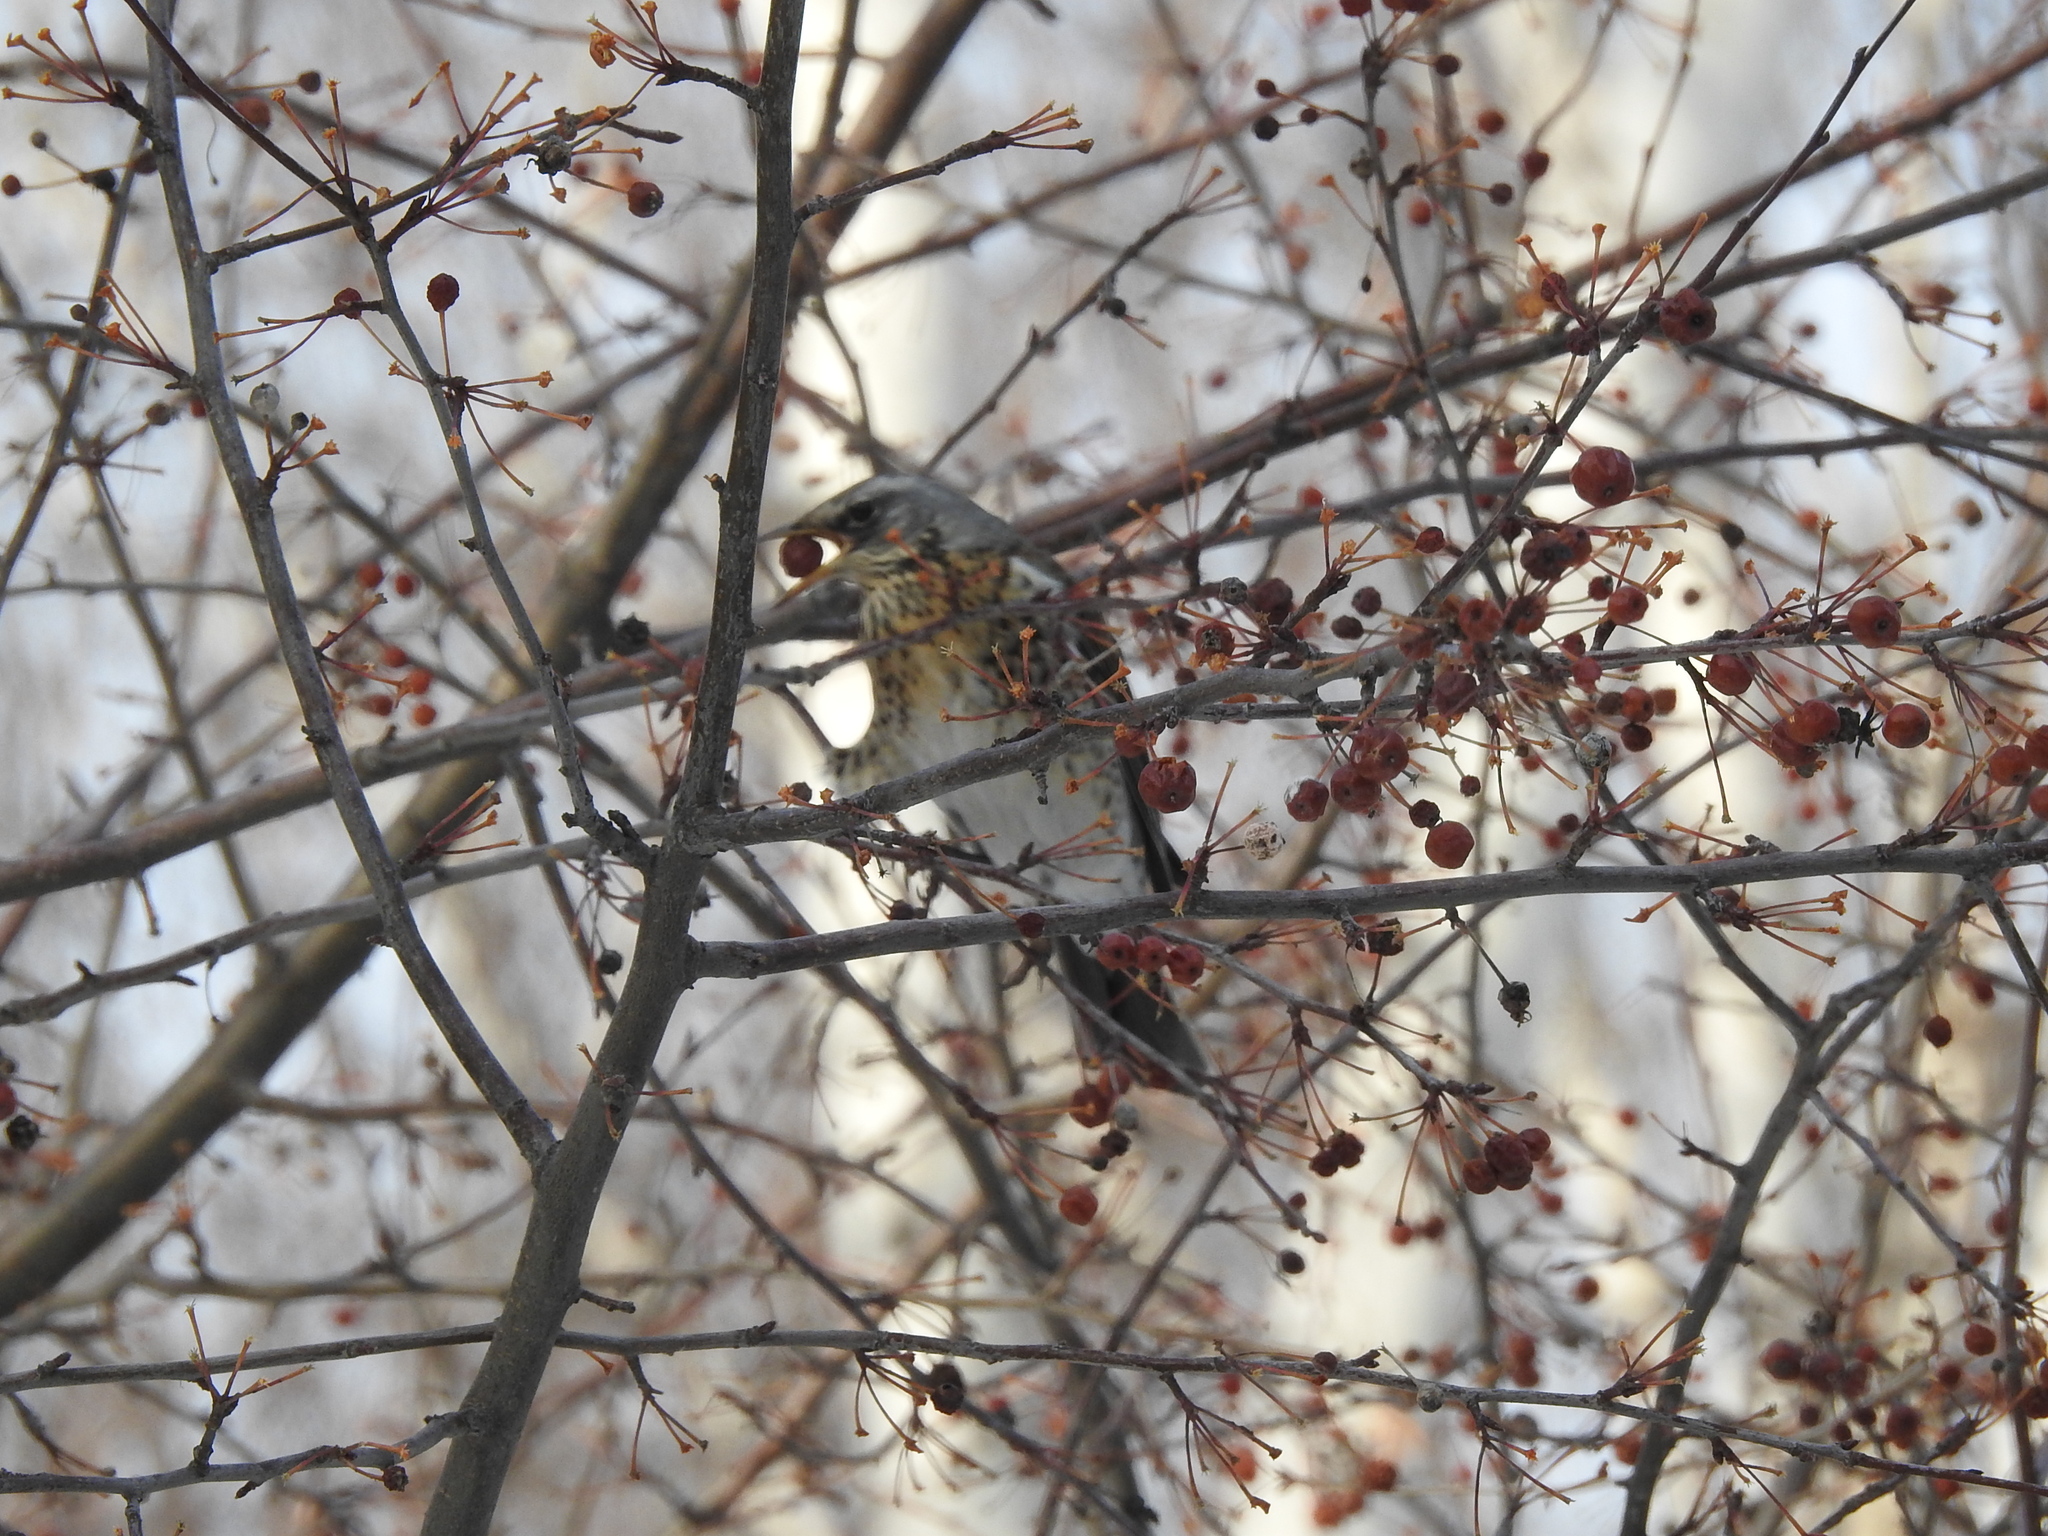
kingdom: Animalia
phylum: Chordata
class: Aves
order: Passeriformes
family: Turdidae
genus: Turdus
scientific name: Turdus pilaris
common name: Fieldfare
